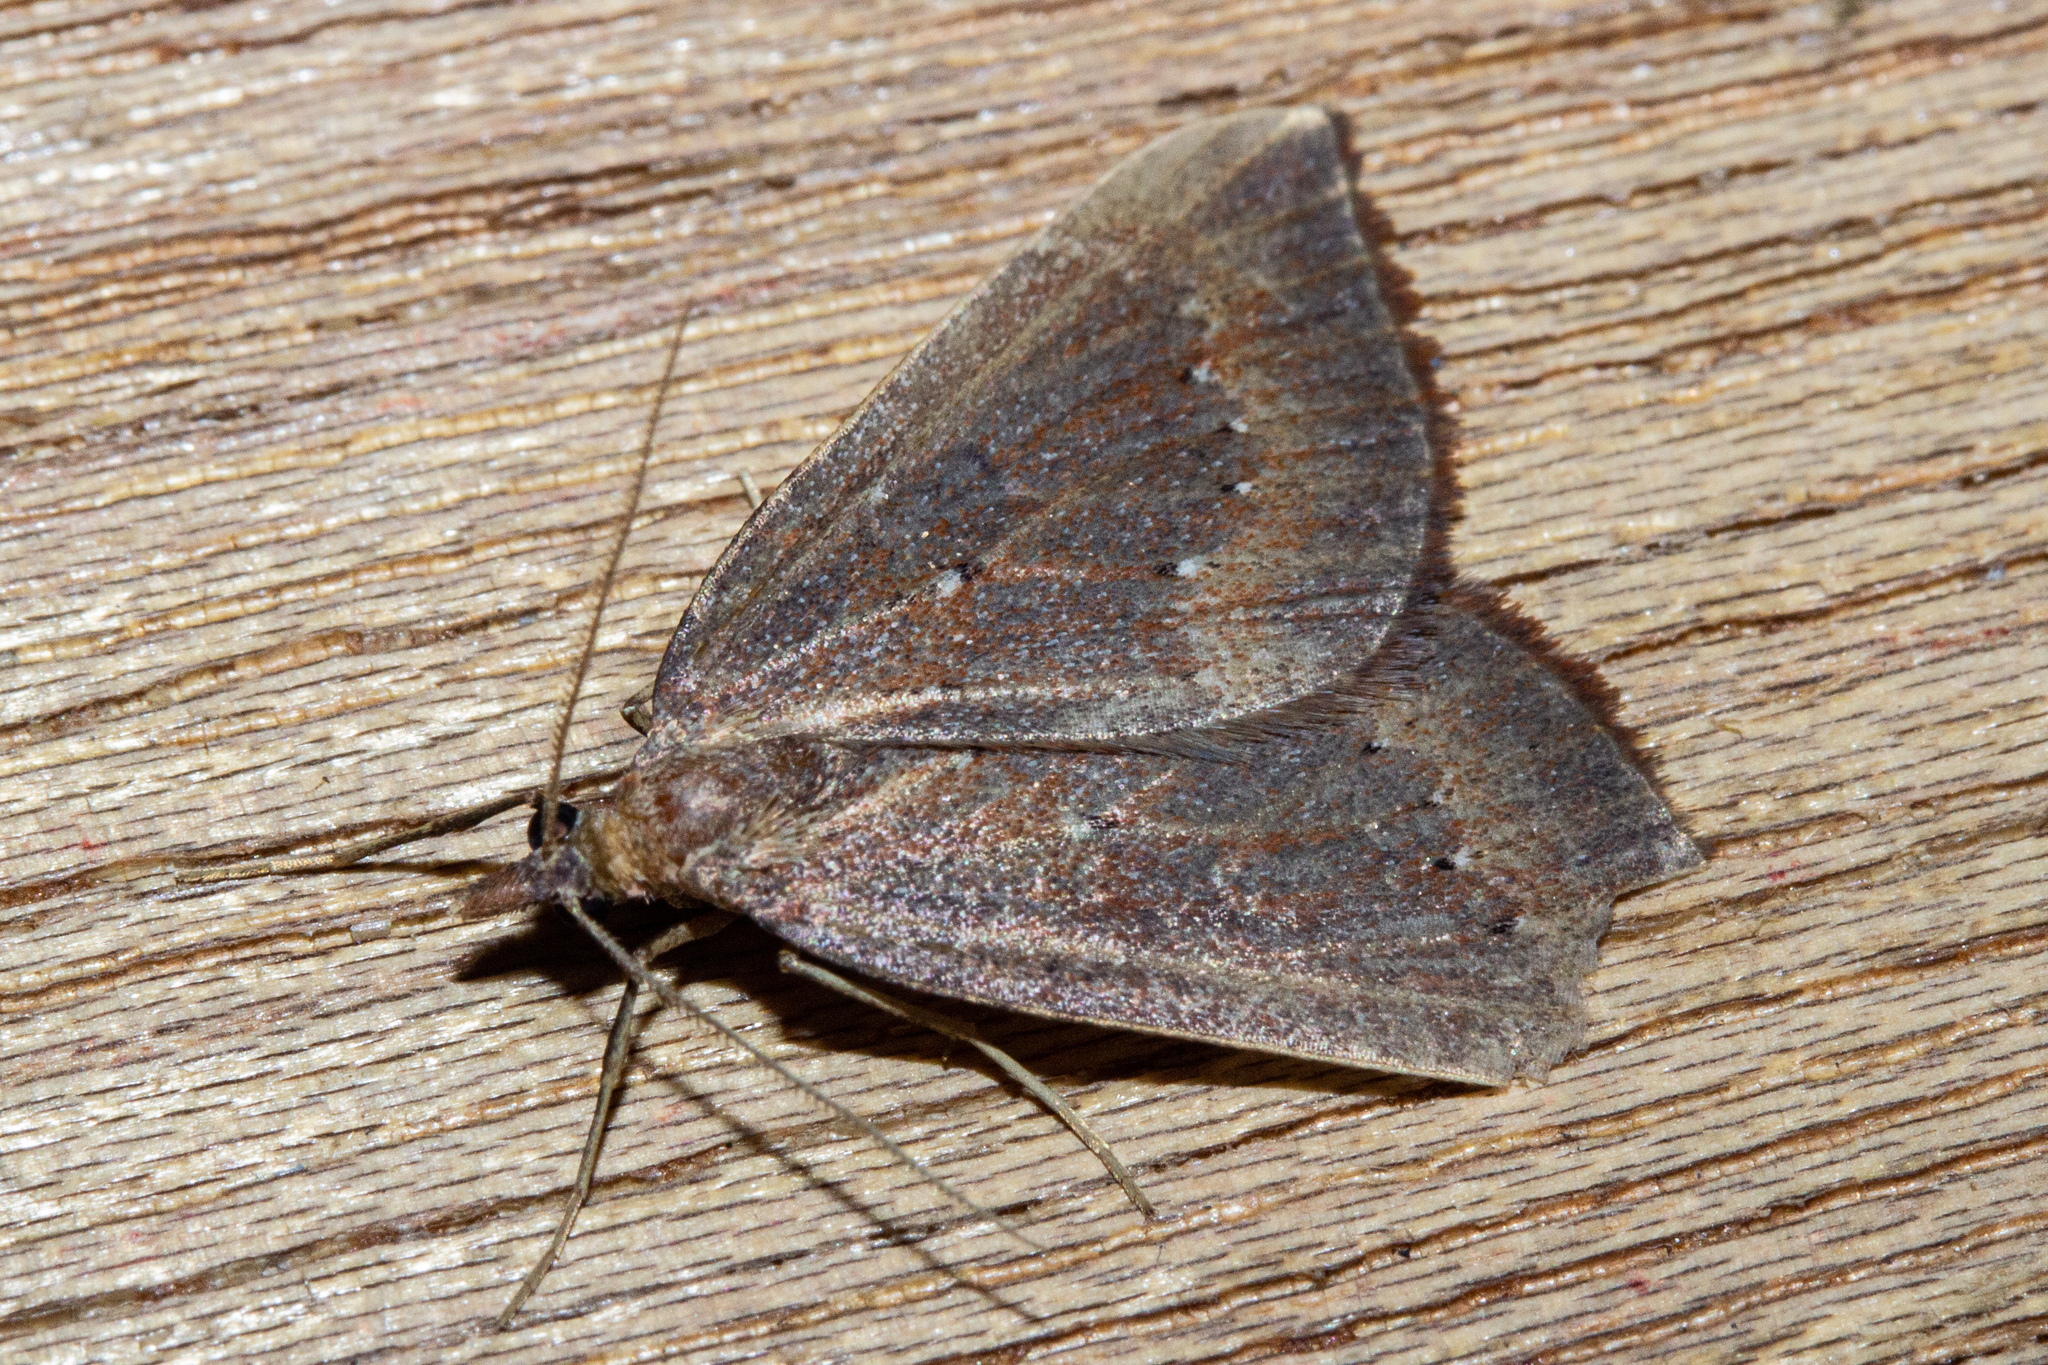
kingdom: Animalia
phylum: Arthropoda
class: Insecta
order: Lepidoptera
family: Geometridae
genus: Xanthorhoe
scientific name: Xanthorhoe occulta
